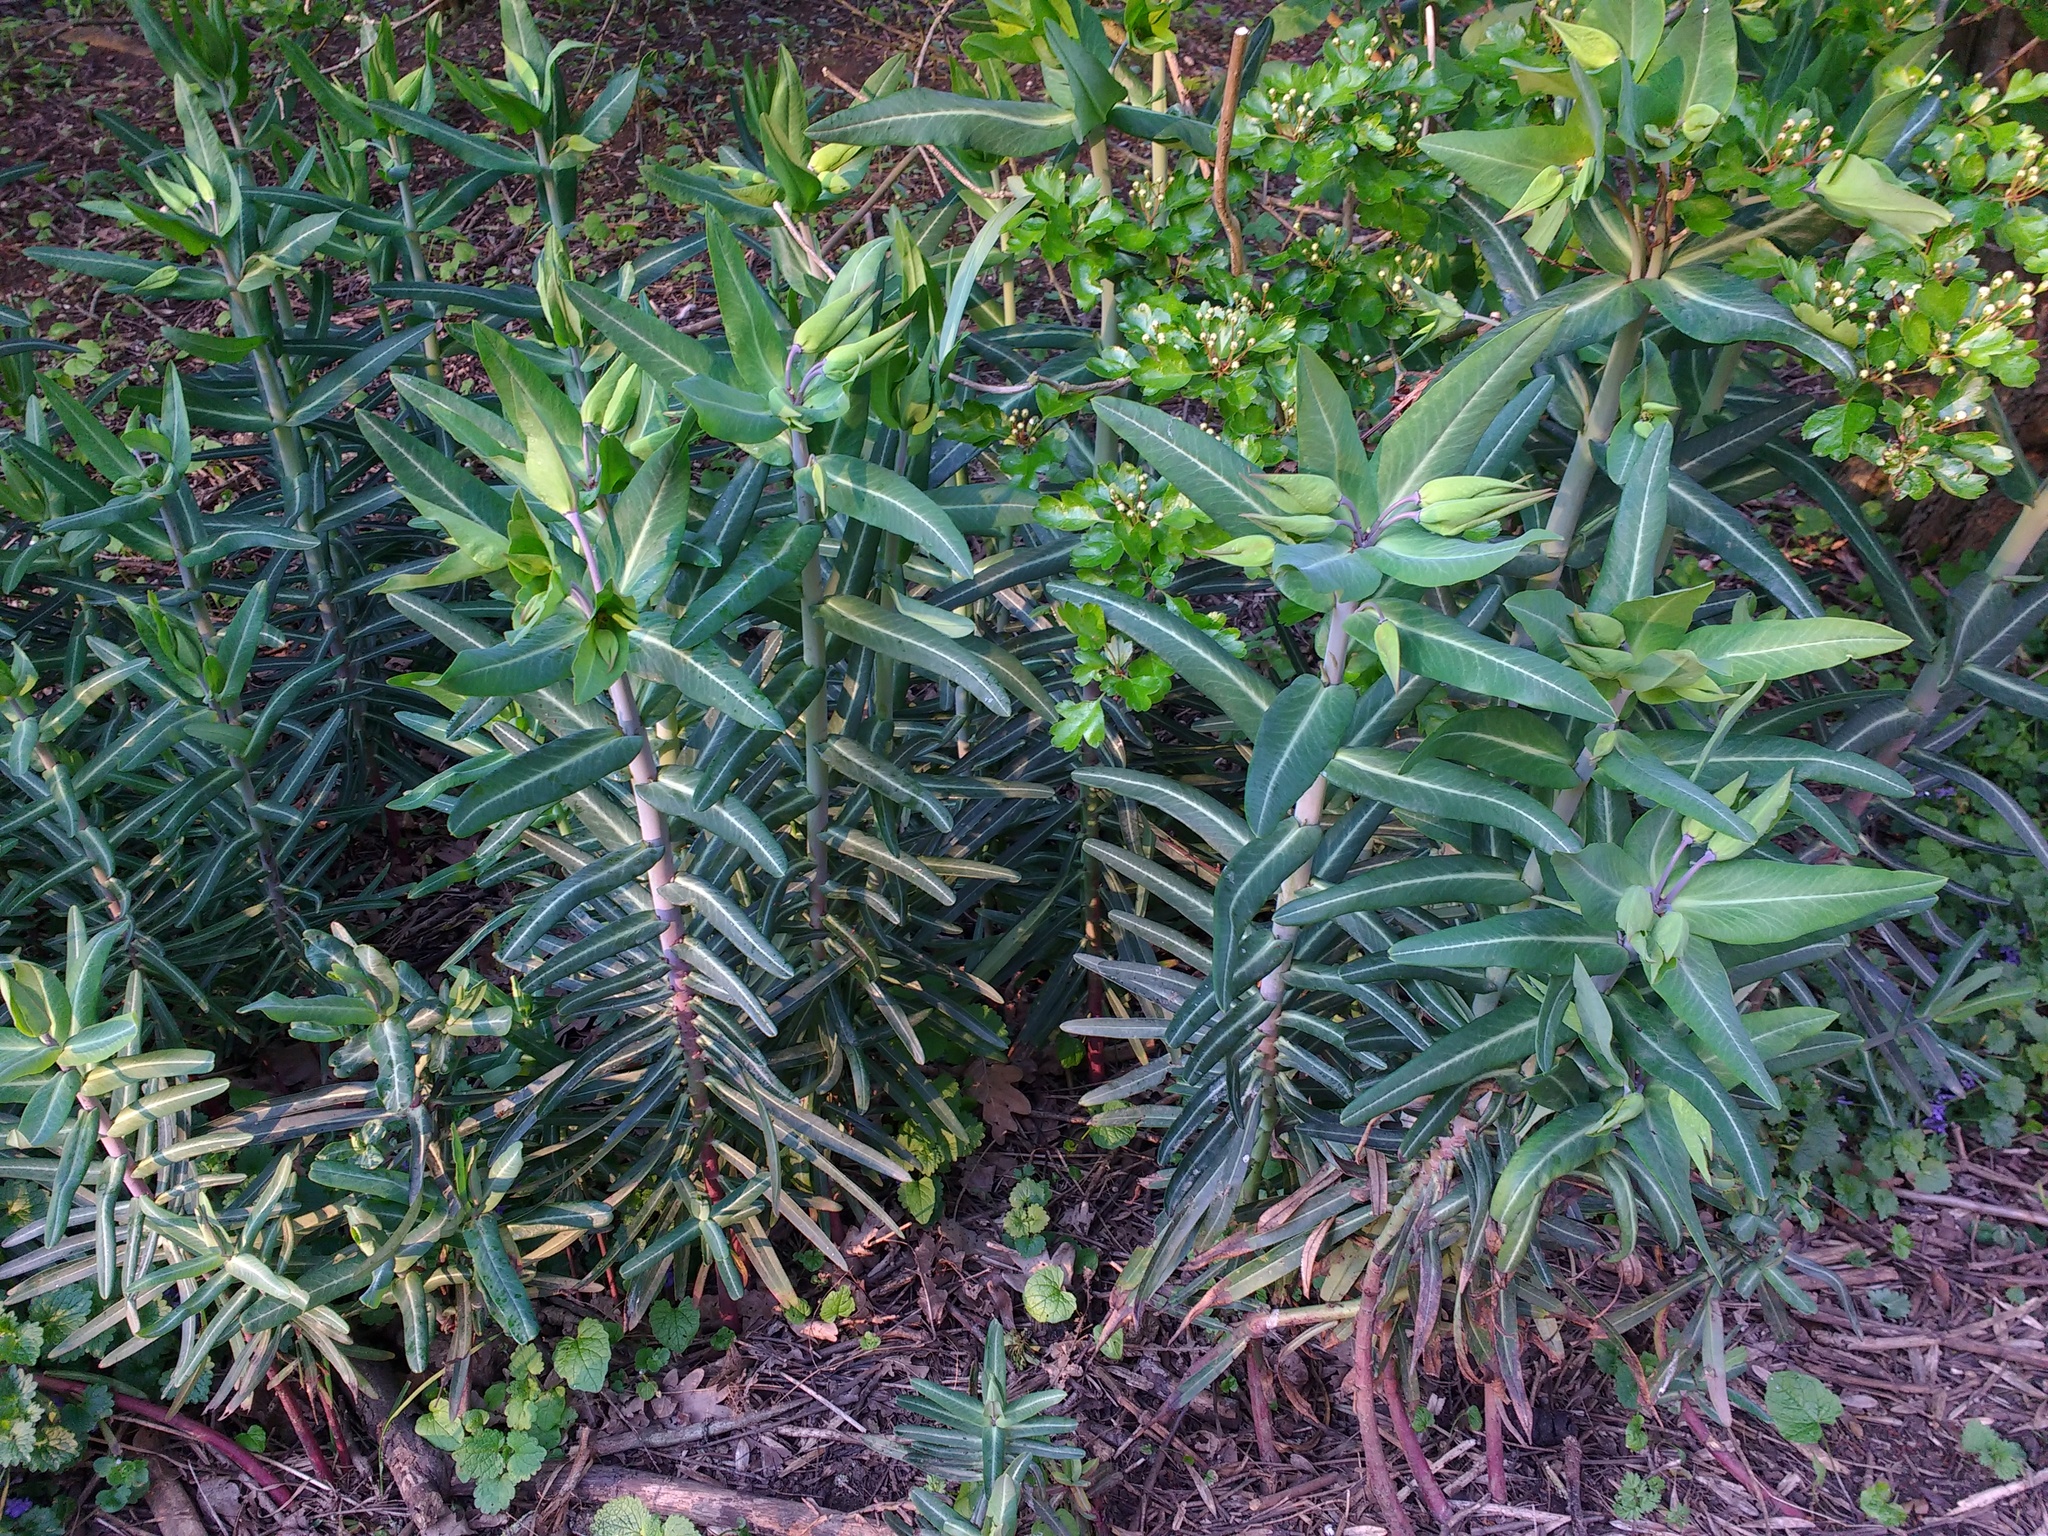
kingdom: Plantae
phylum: Tracheophyta
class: Magnoliopsida
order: Malpighiales
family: Euphorbiaceae
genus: Euphorbia
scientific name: Euphorbia lathyris
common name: Caper spurge
